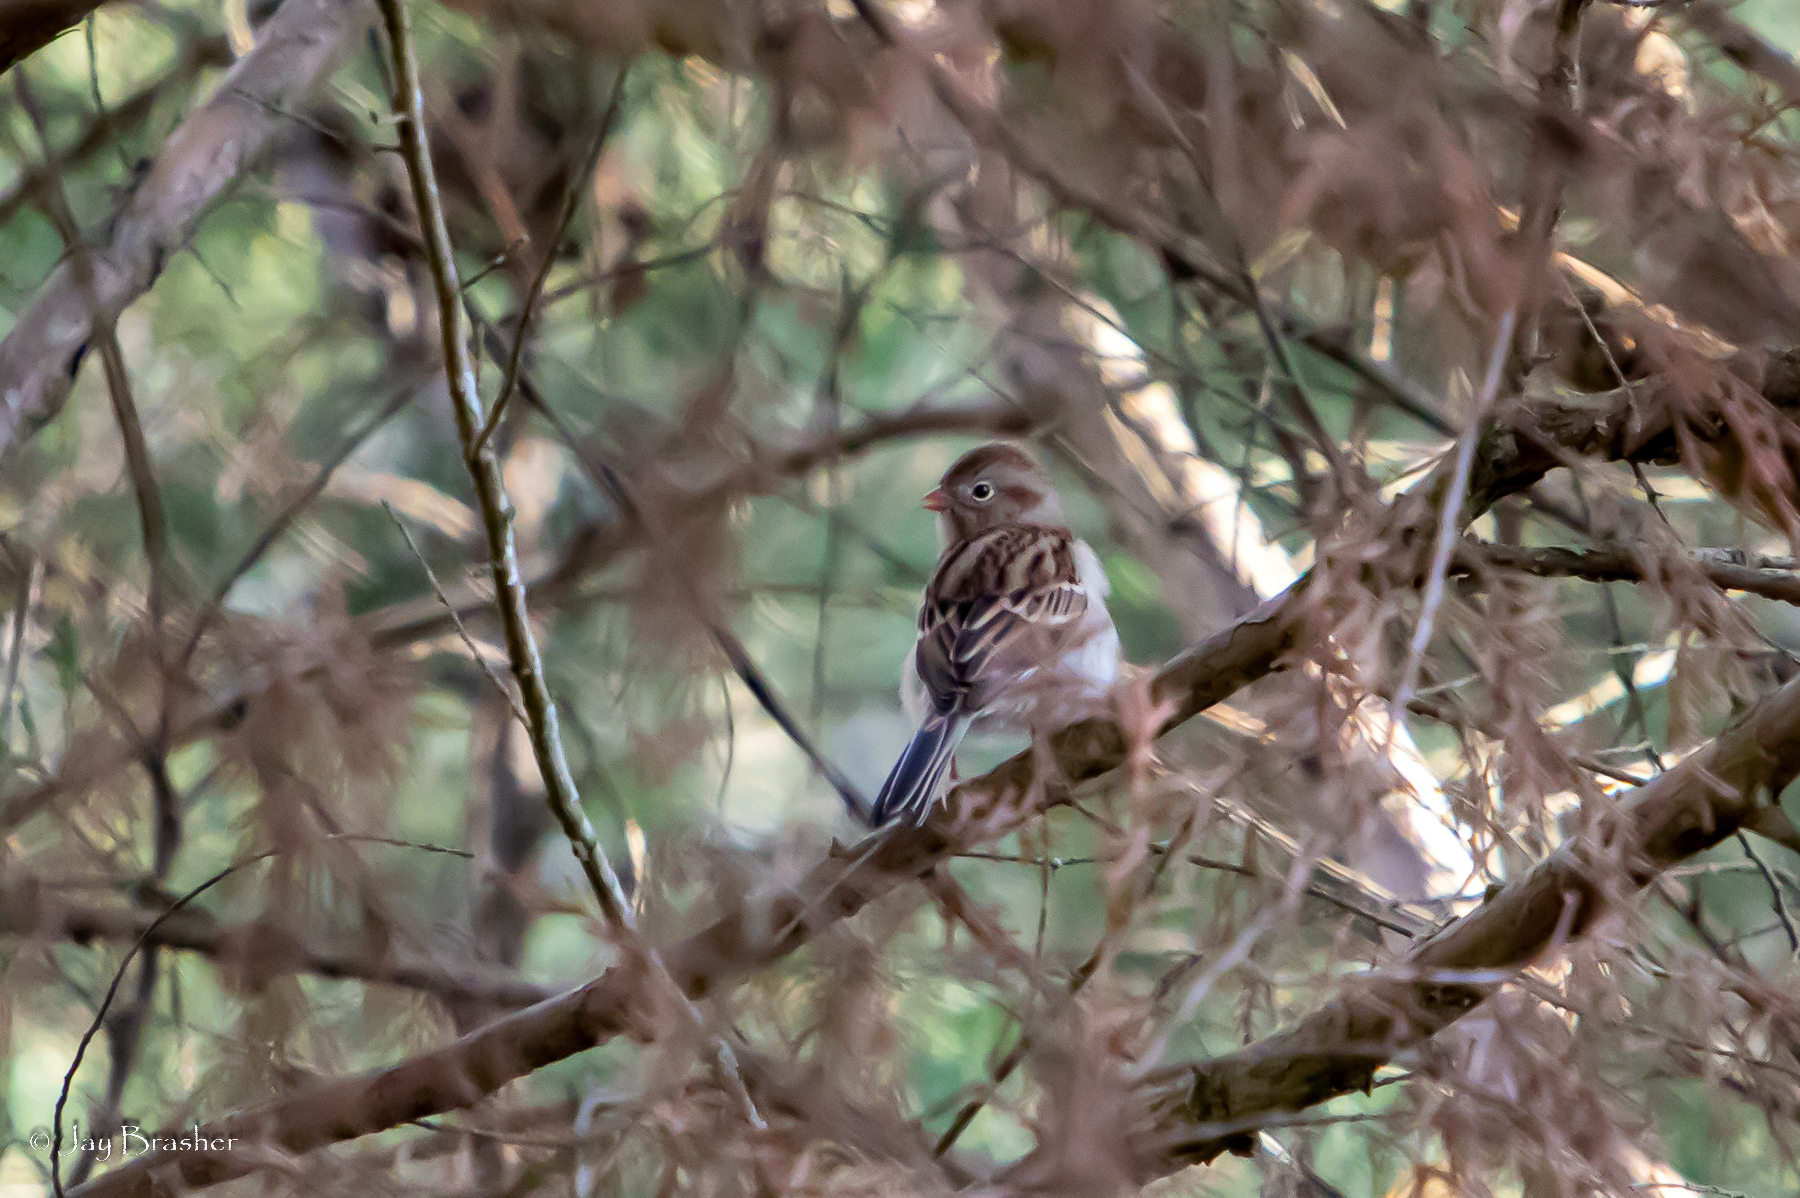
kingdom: Animalia
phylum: Chordata
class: Aves
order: Passeriformes
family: Passerellidae
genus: Spizella
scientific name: Spizella pusilla
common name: Field sparrow
